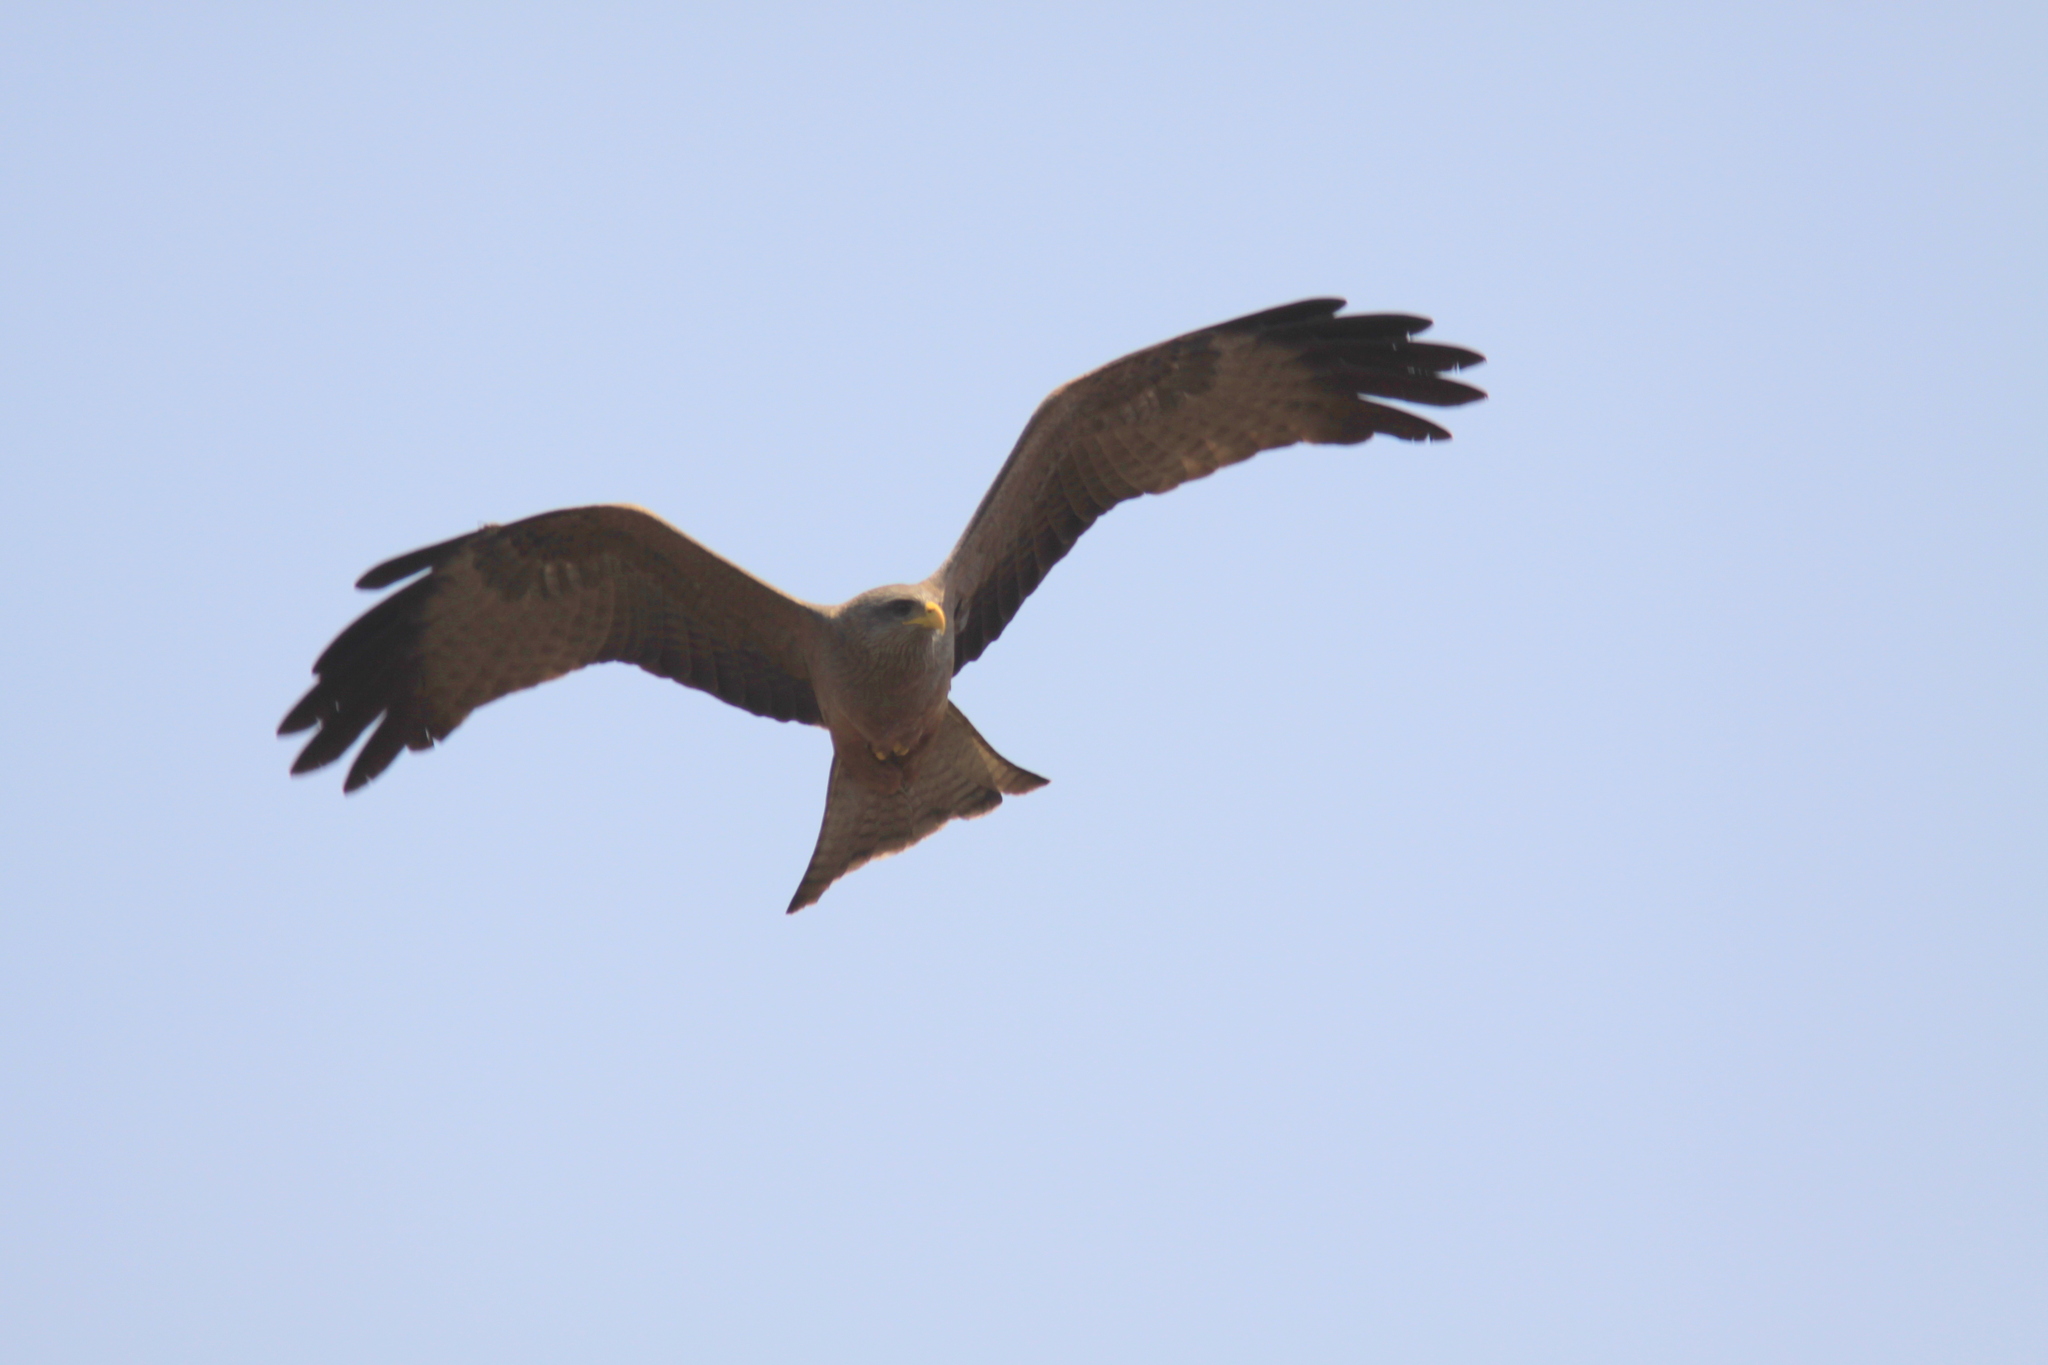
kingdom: Animalia
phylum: Chordata
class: Aves
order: Accipitriformes
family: Accipitridae
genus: Milvus
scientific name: Milvus migrans
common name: Black kite
